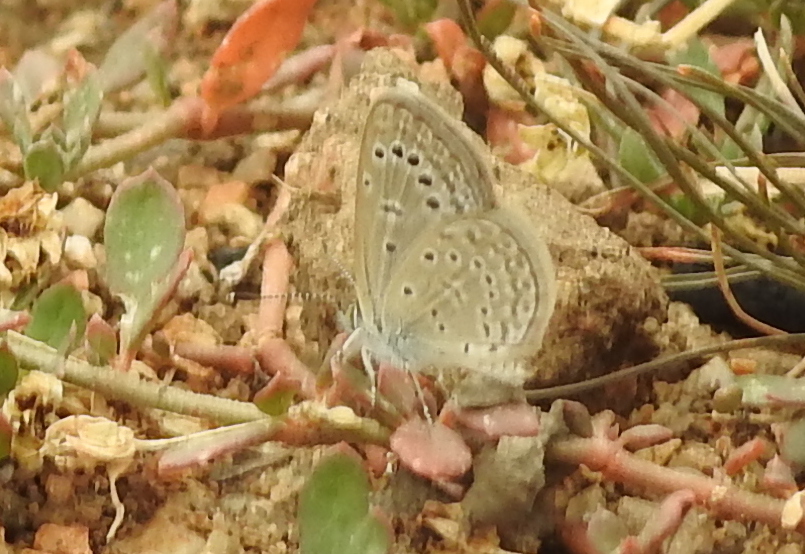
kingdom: Animalia
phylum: Arthropoda
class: Insecta
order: Lepidoptera
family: Lycaenidae
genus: Zizeeria
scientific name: Zizeeria karsandra
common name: Dark grass blue
